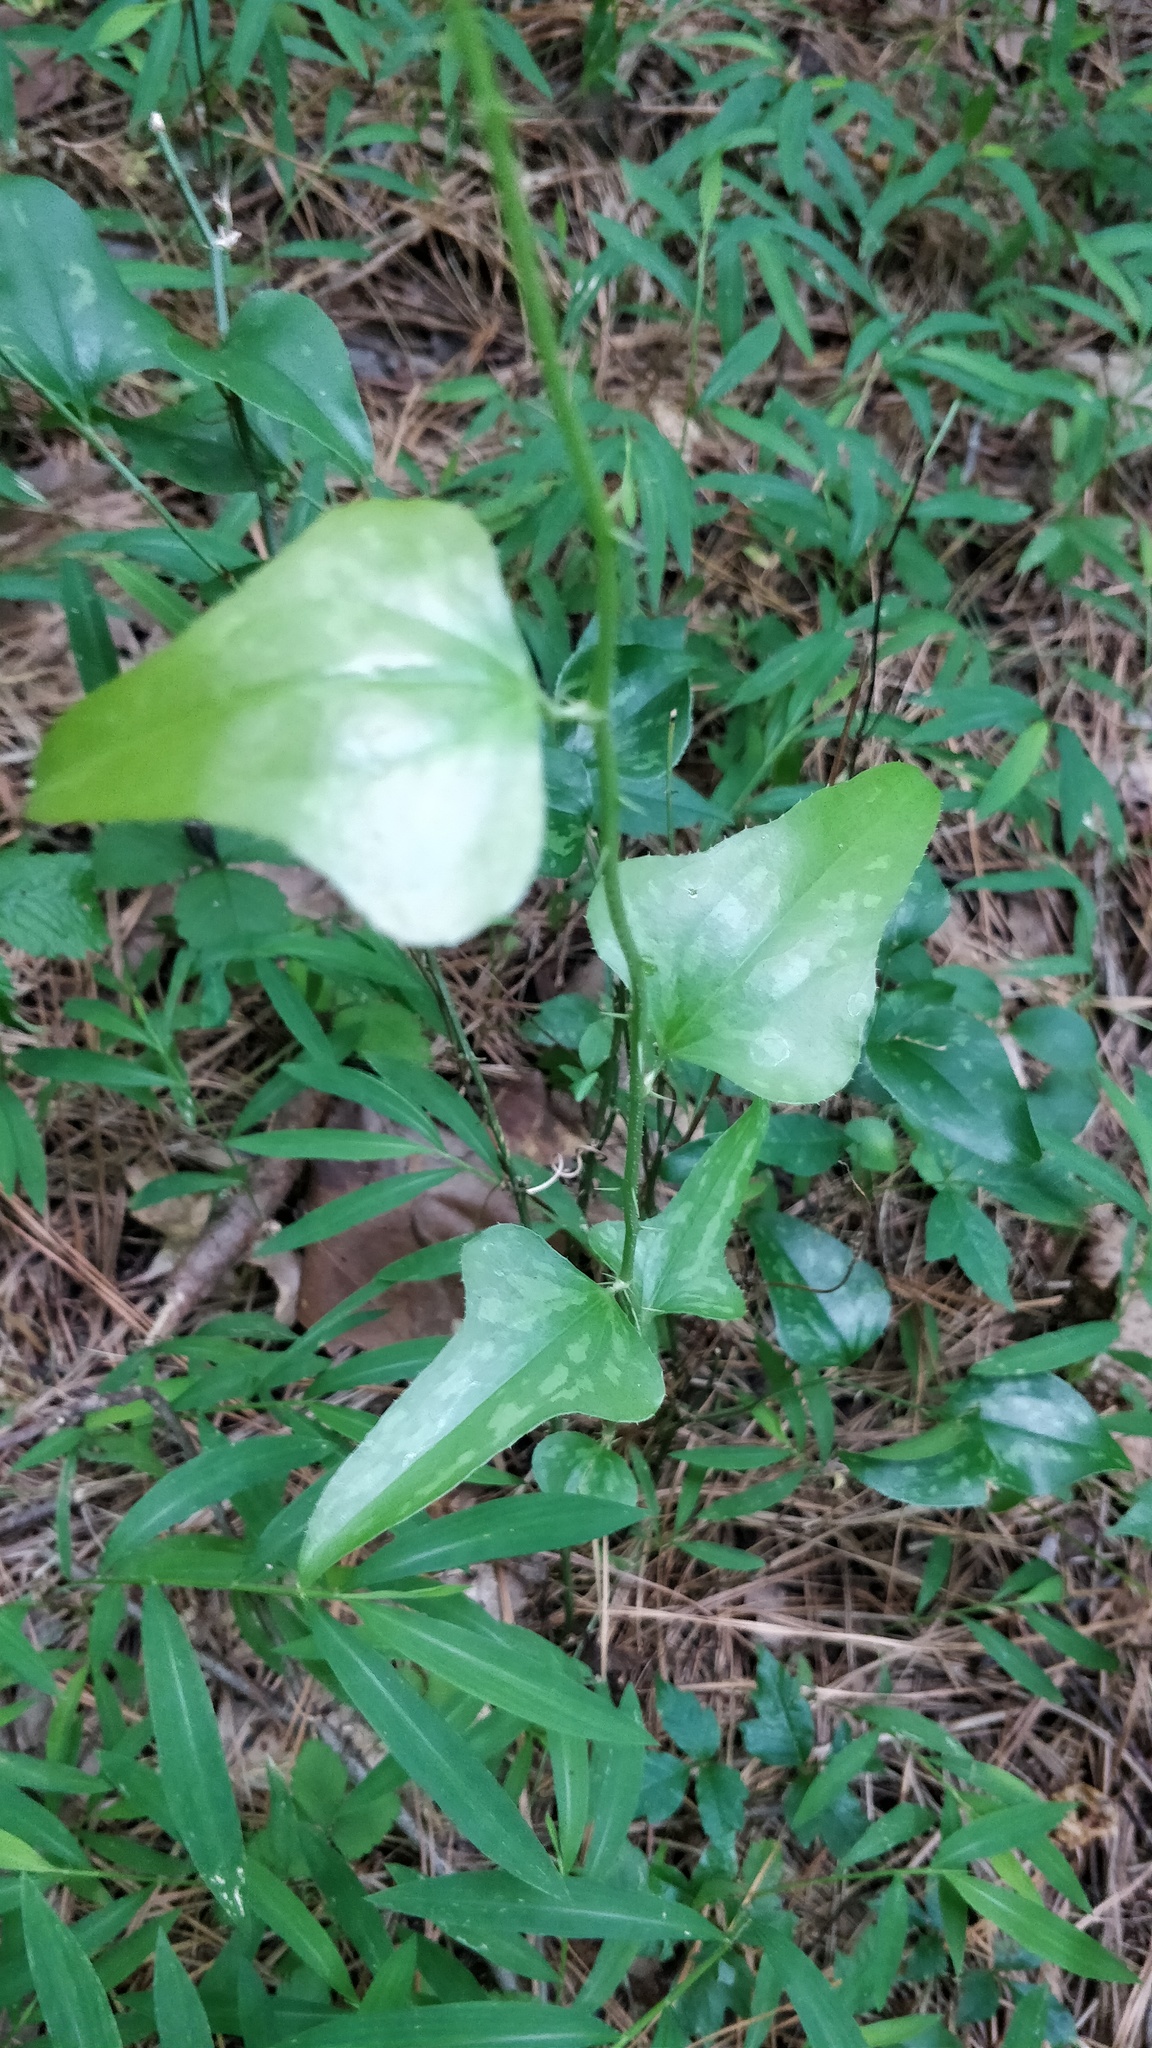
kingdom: Plantae
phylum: Tracheophyta
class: Liliopsida
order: Liliales
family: Smilacaceae
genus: Smilax
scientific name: Smilax bona-nox
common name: Catbrier
